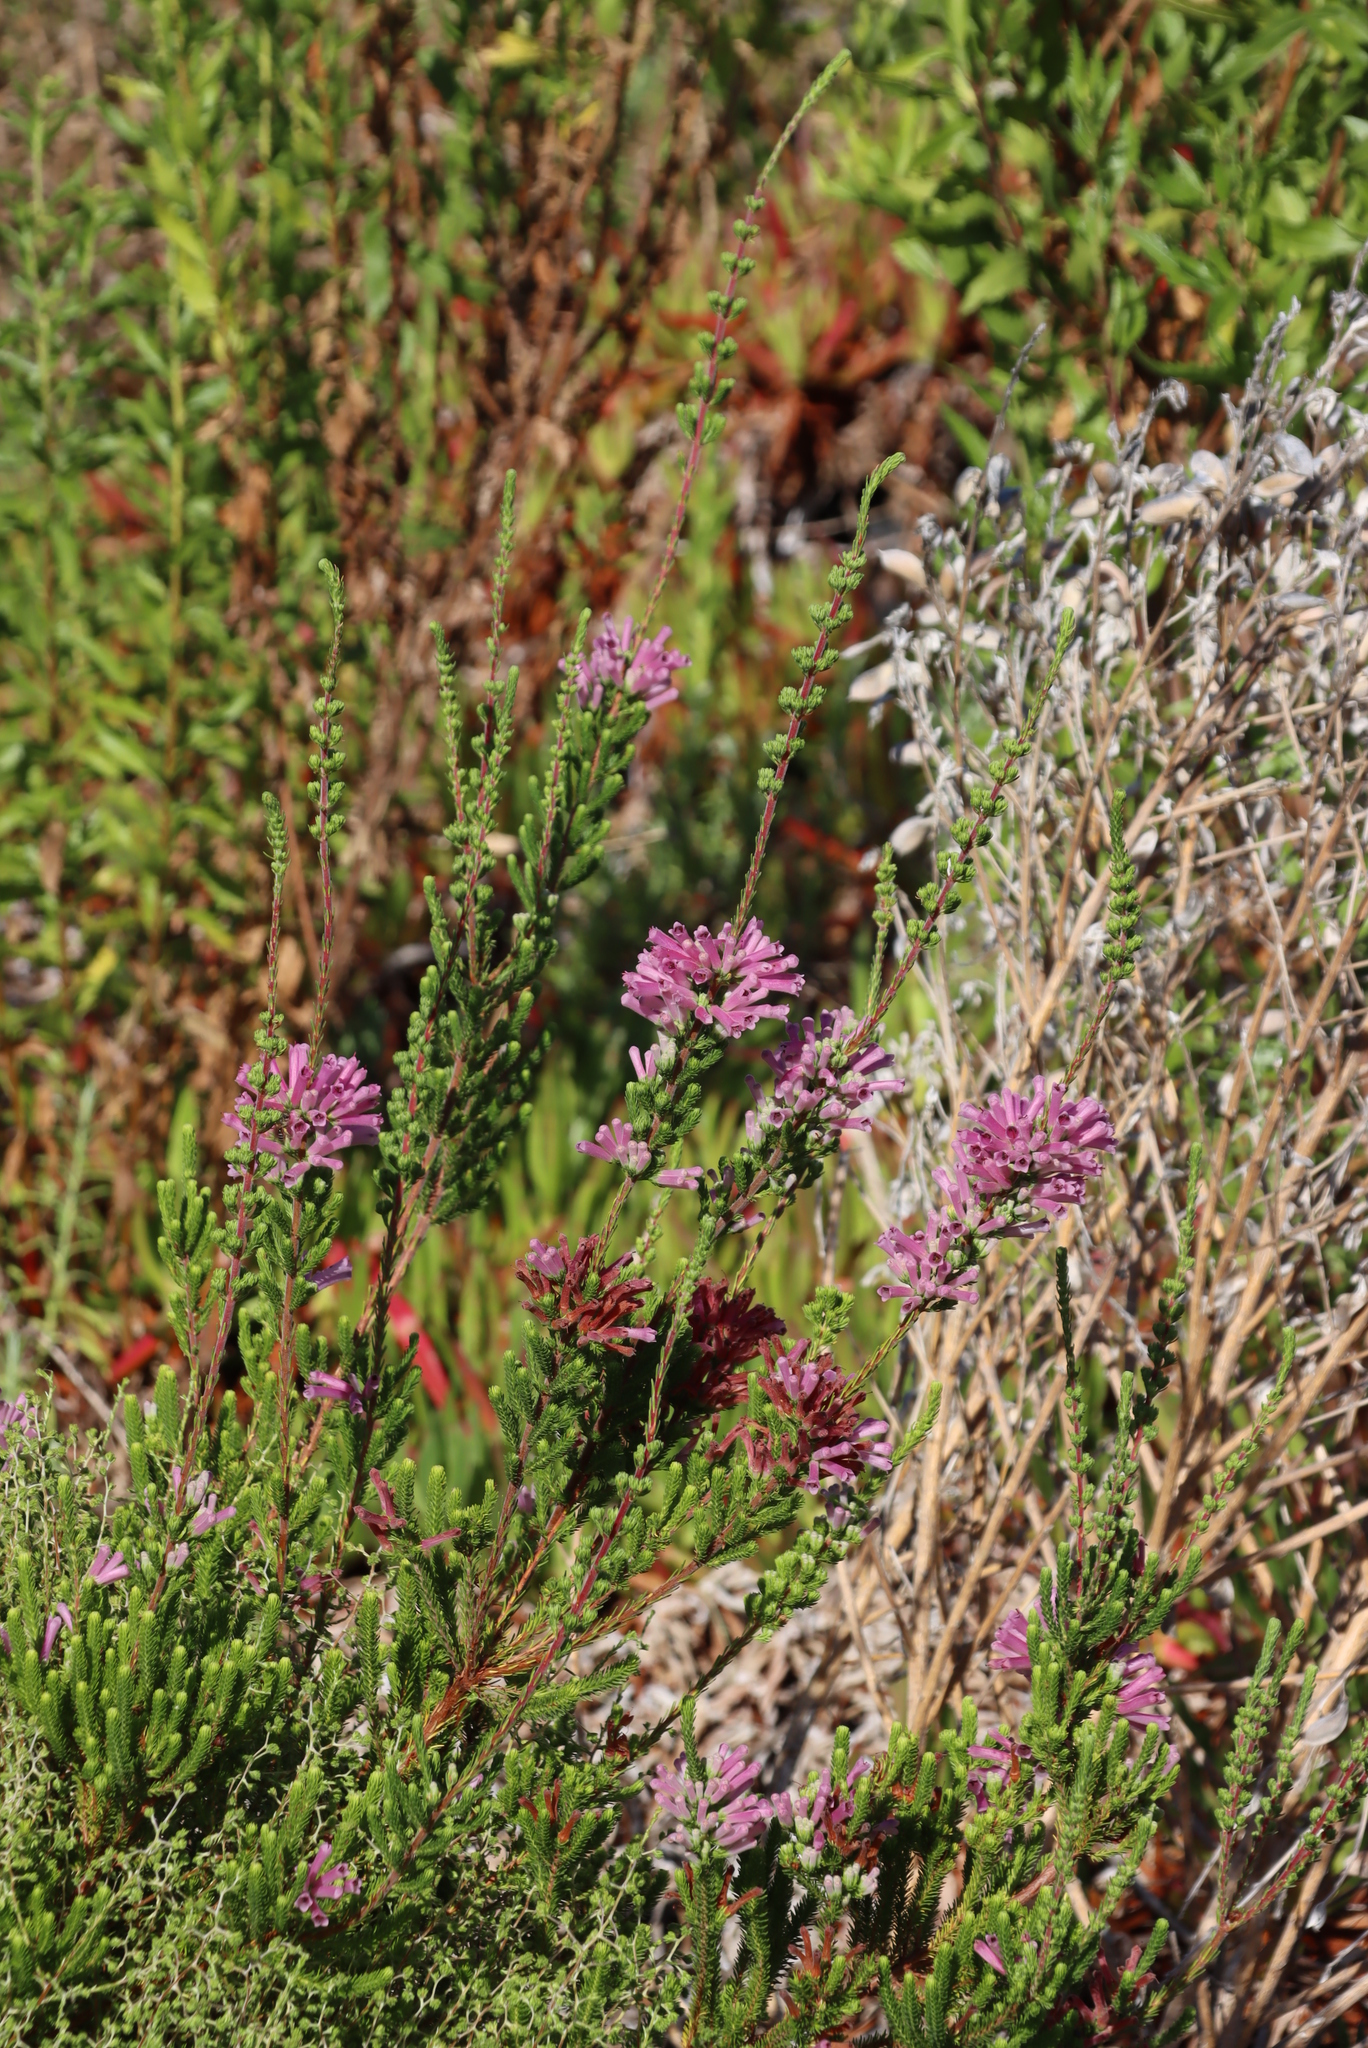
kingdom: Plantae
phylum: Tracheophyta
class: Magnoliopsida
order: Ericales
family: Ericaceae
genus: Erica
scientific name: Erica verticillata
